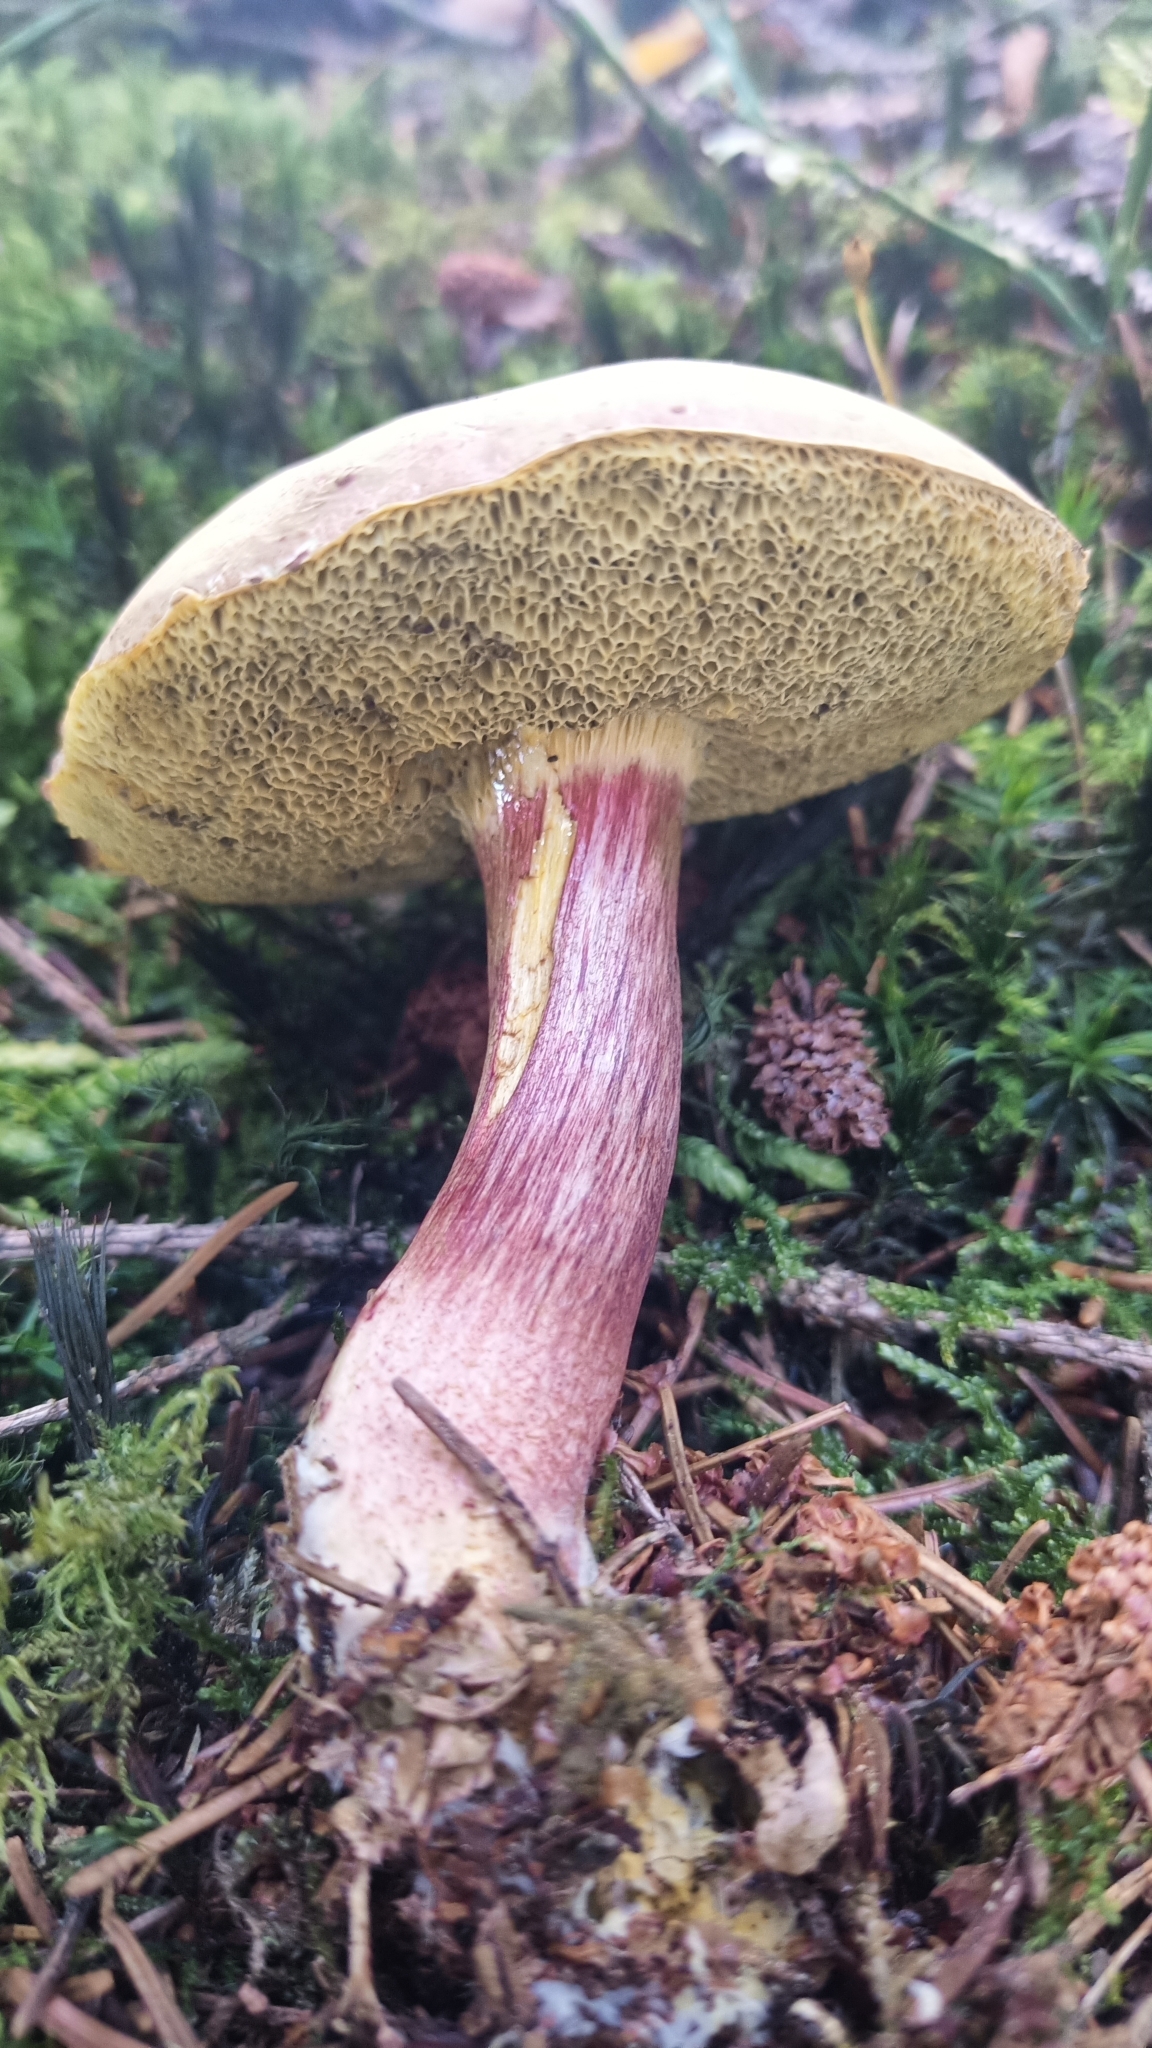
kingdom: Fungi
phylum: Basidiomycota
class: Agaricomycetes
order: Boletales
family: Boletaceae
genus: Xerocomellus
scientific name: Xerocomellus
